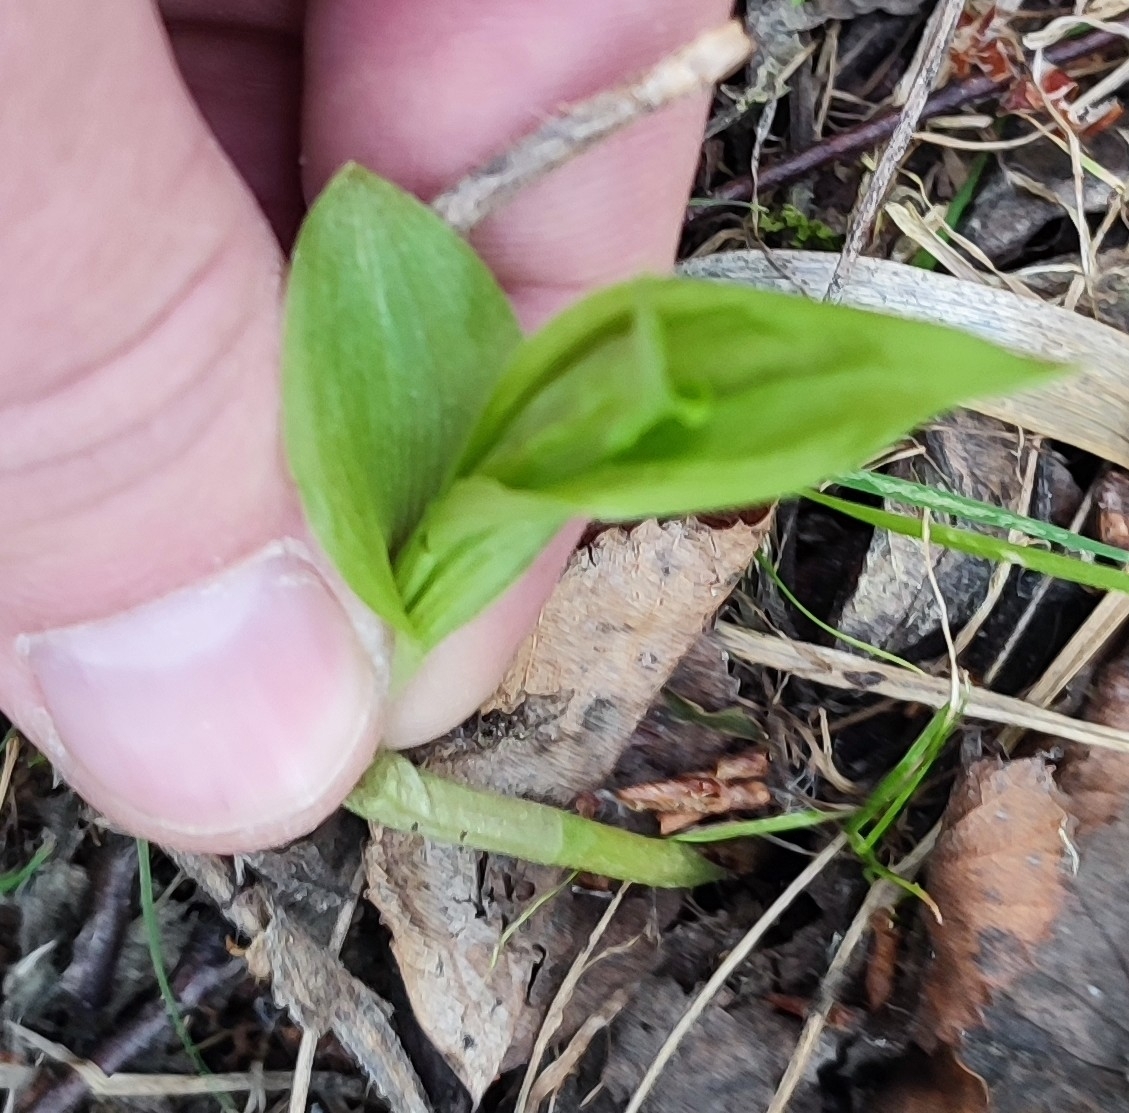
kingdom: Plantae
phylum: Tracheophyta
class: Liliopsida
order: Asparagales
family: Orchidaceae
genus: Cypripedium
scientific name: Cypripedium calceolus
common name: Lady's-slipper
